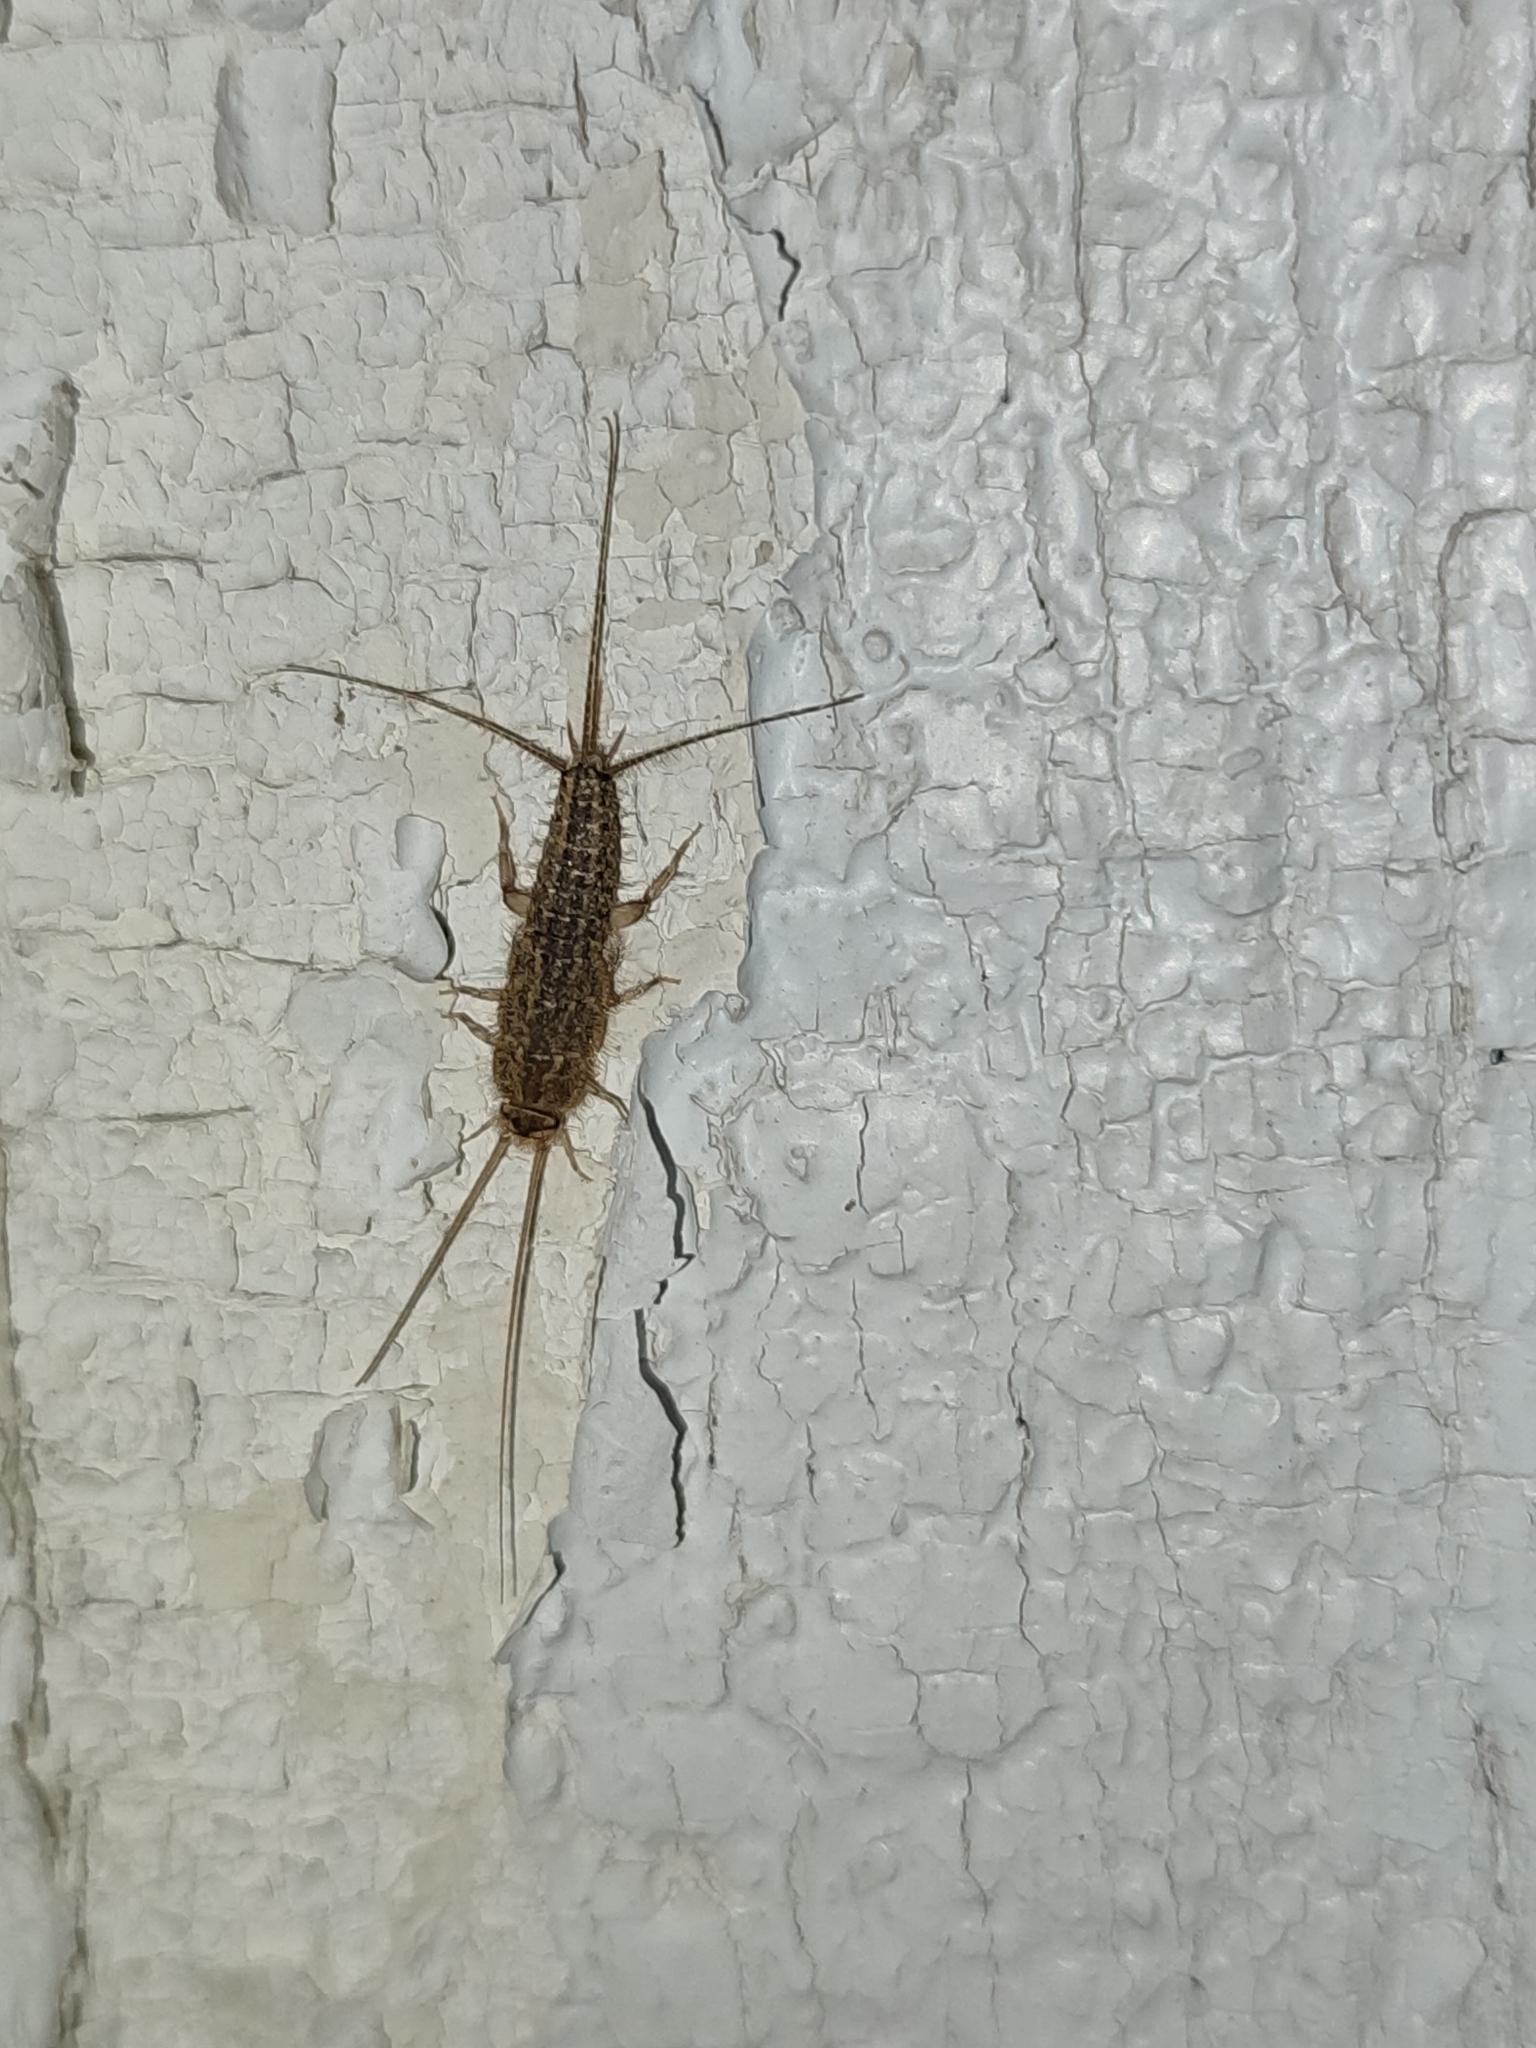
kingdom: Animalia
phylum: Arthropoda
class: Insecta
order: Zygentoma
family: Lepismatidae
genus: Ctenolepisma
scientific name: Ctenolepisma lineata
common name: Four-lined silverfish
